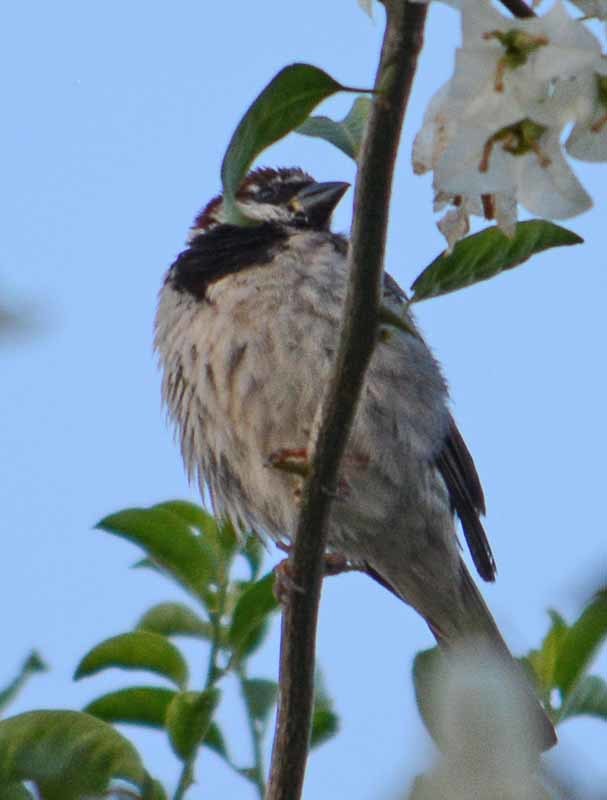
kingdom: Animalia
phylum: Chordata
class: Aves
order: Passeriformes
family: Passeridae
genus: Passer
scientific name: Passer domesticus
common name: House sparrow
